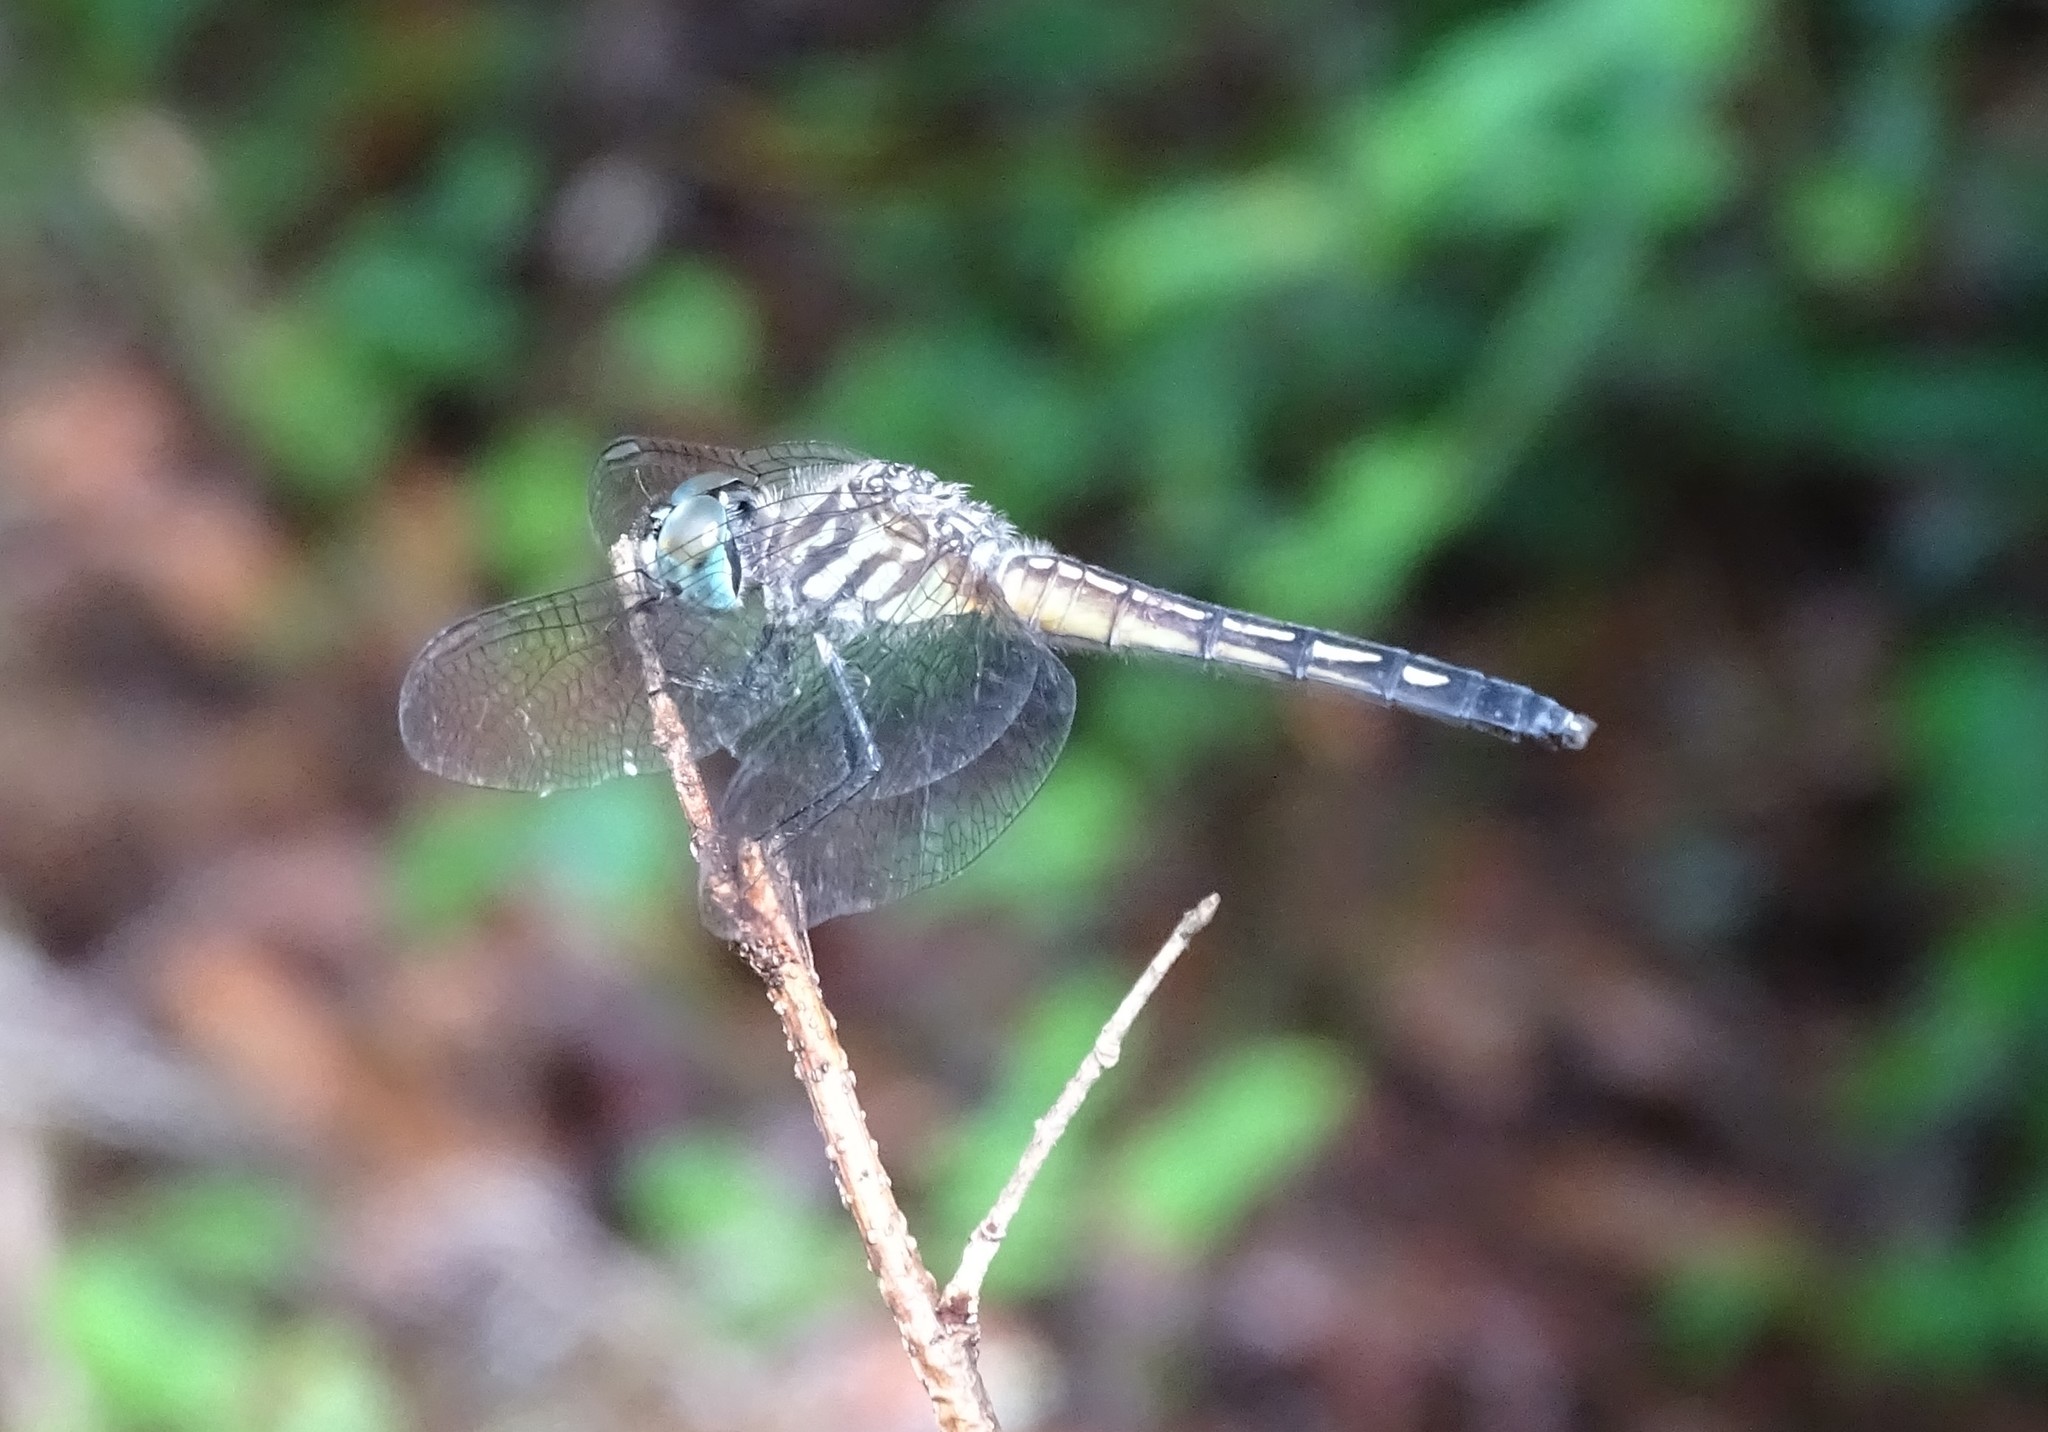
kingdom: Animalia
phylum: Arthropoda
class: Insecta
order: Odonata
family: Libellulidae
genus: Pachydiplax
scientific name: Pachydiplax longipennis
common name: Blue dasher
